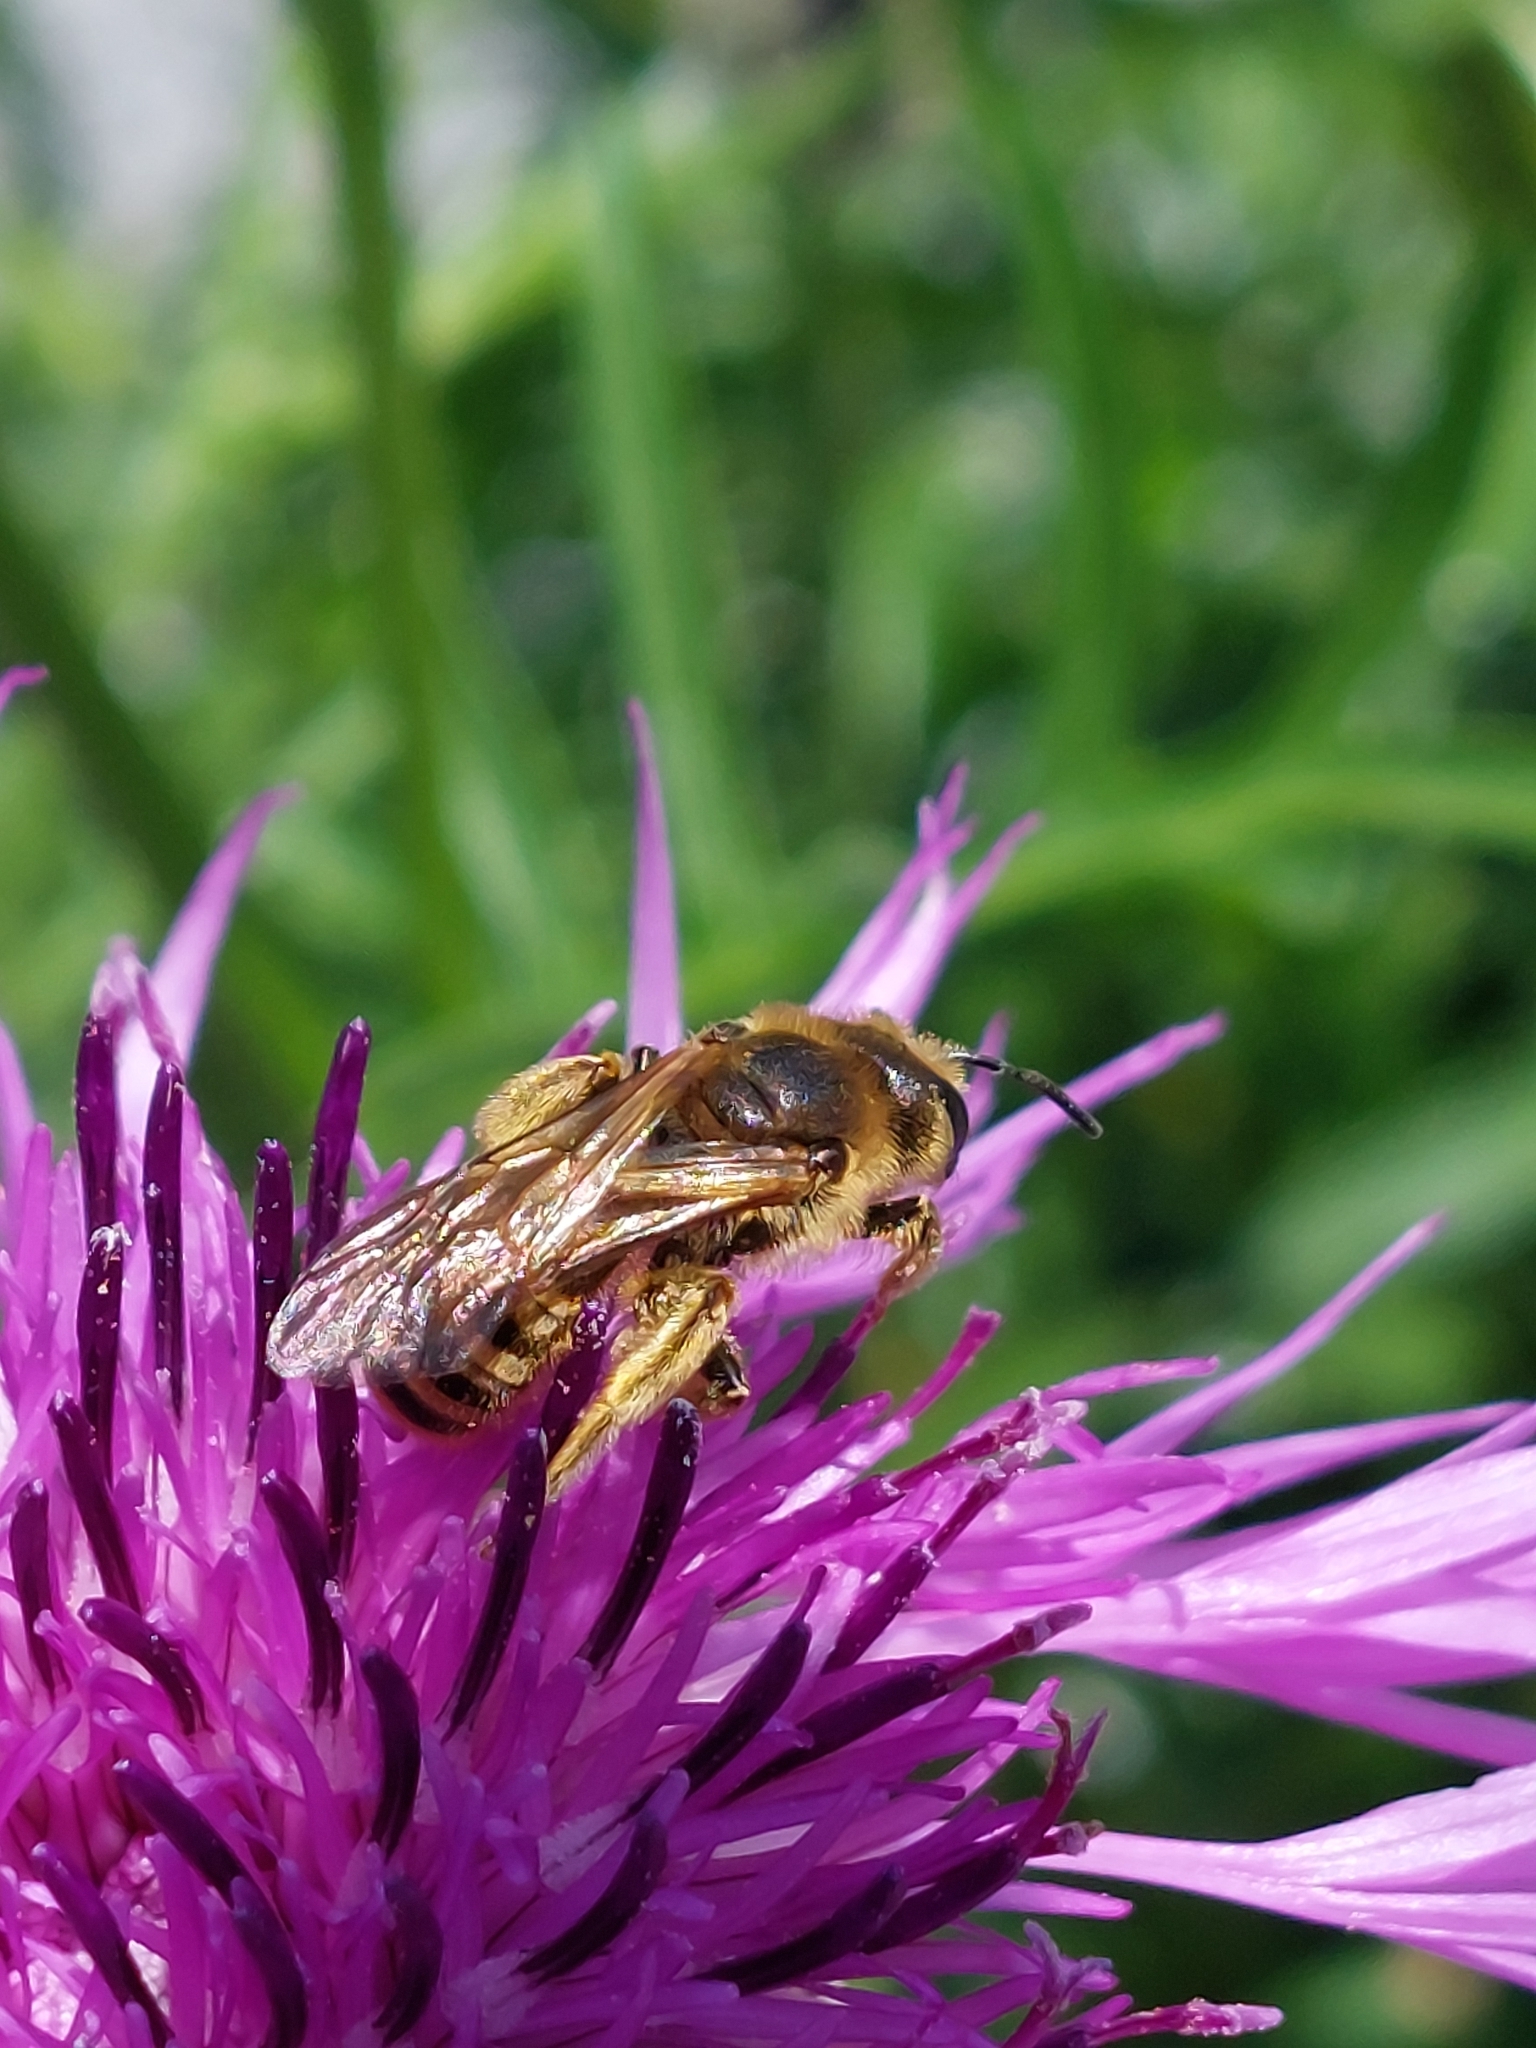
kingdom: Animalia
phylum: Arthropoda
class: Insecta
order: Hymenoptera
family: Halictidae
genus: Halictus
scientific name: Halictus scabiosae
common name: Great banded furrow bee
